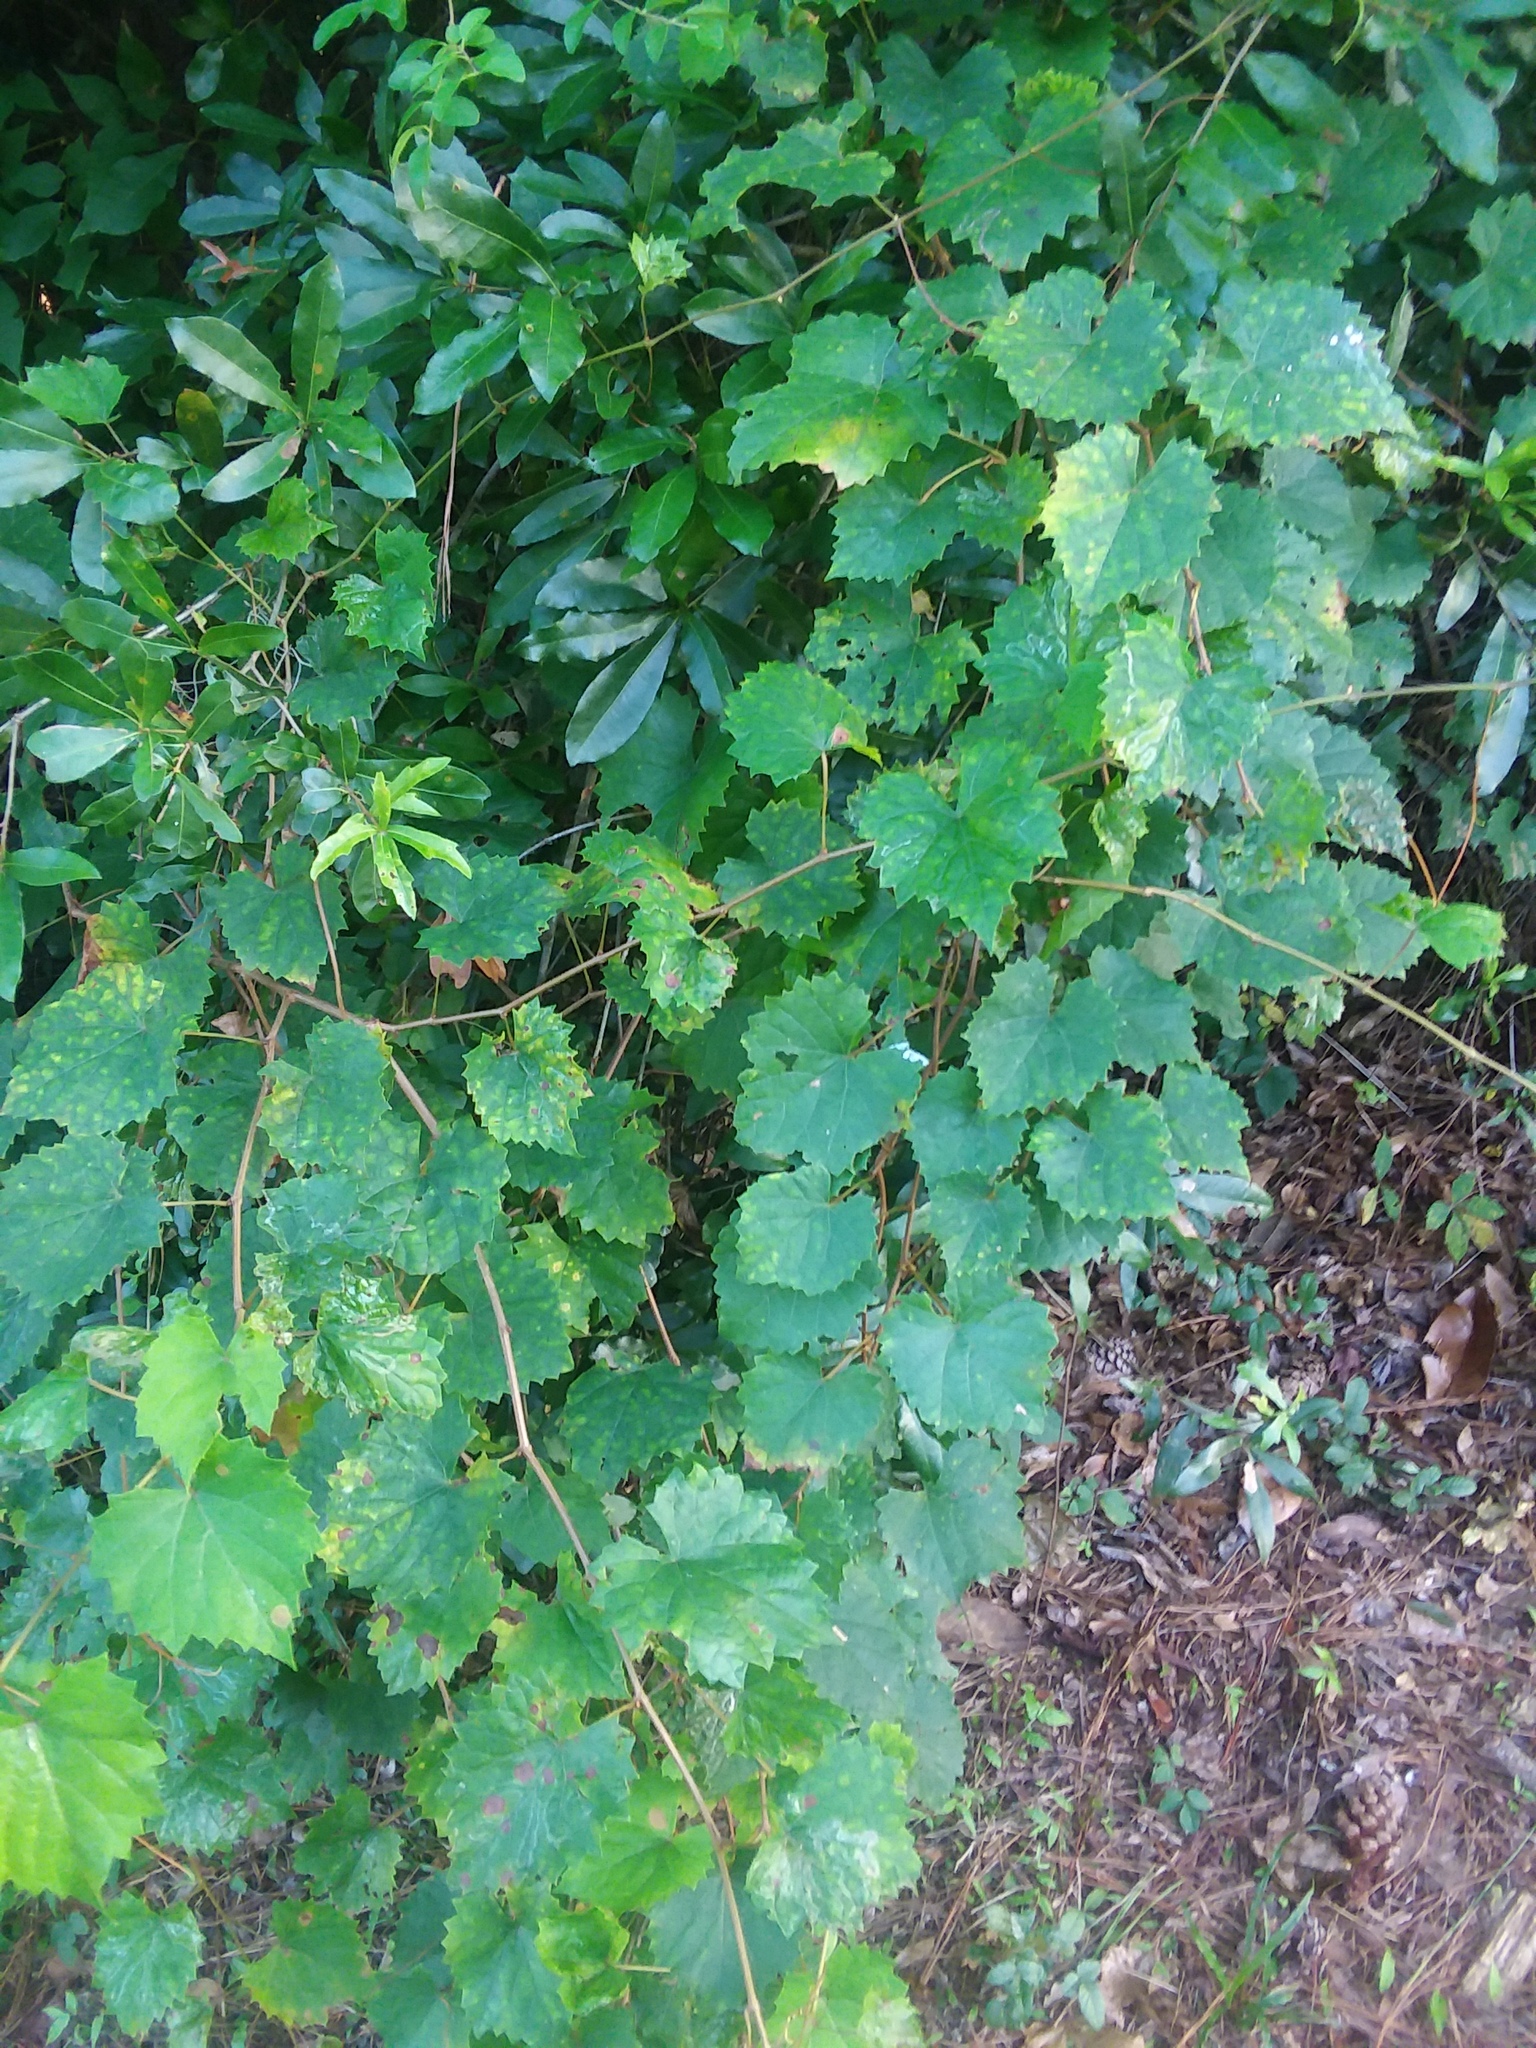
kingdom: Plantae
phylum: Tracheophyta
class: Magnoliopsida
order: Vitales
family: Vitaceae
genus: Vitis
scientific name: Vitis rotundifolia
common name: Muscadine grape
